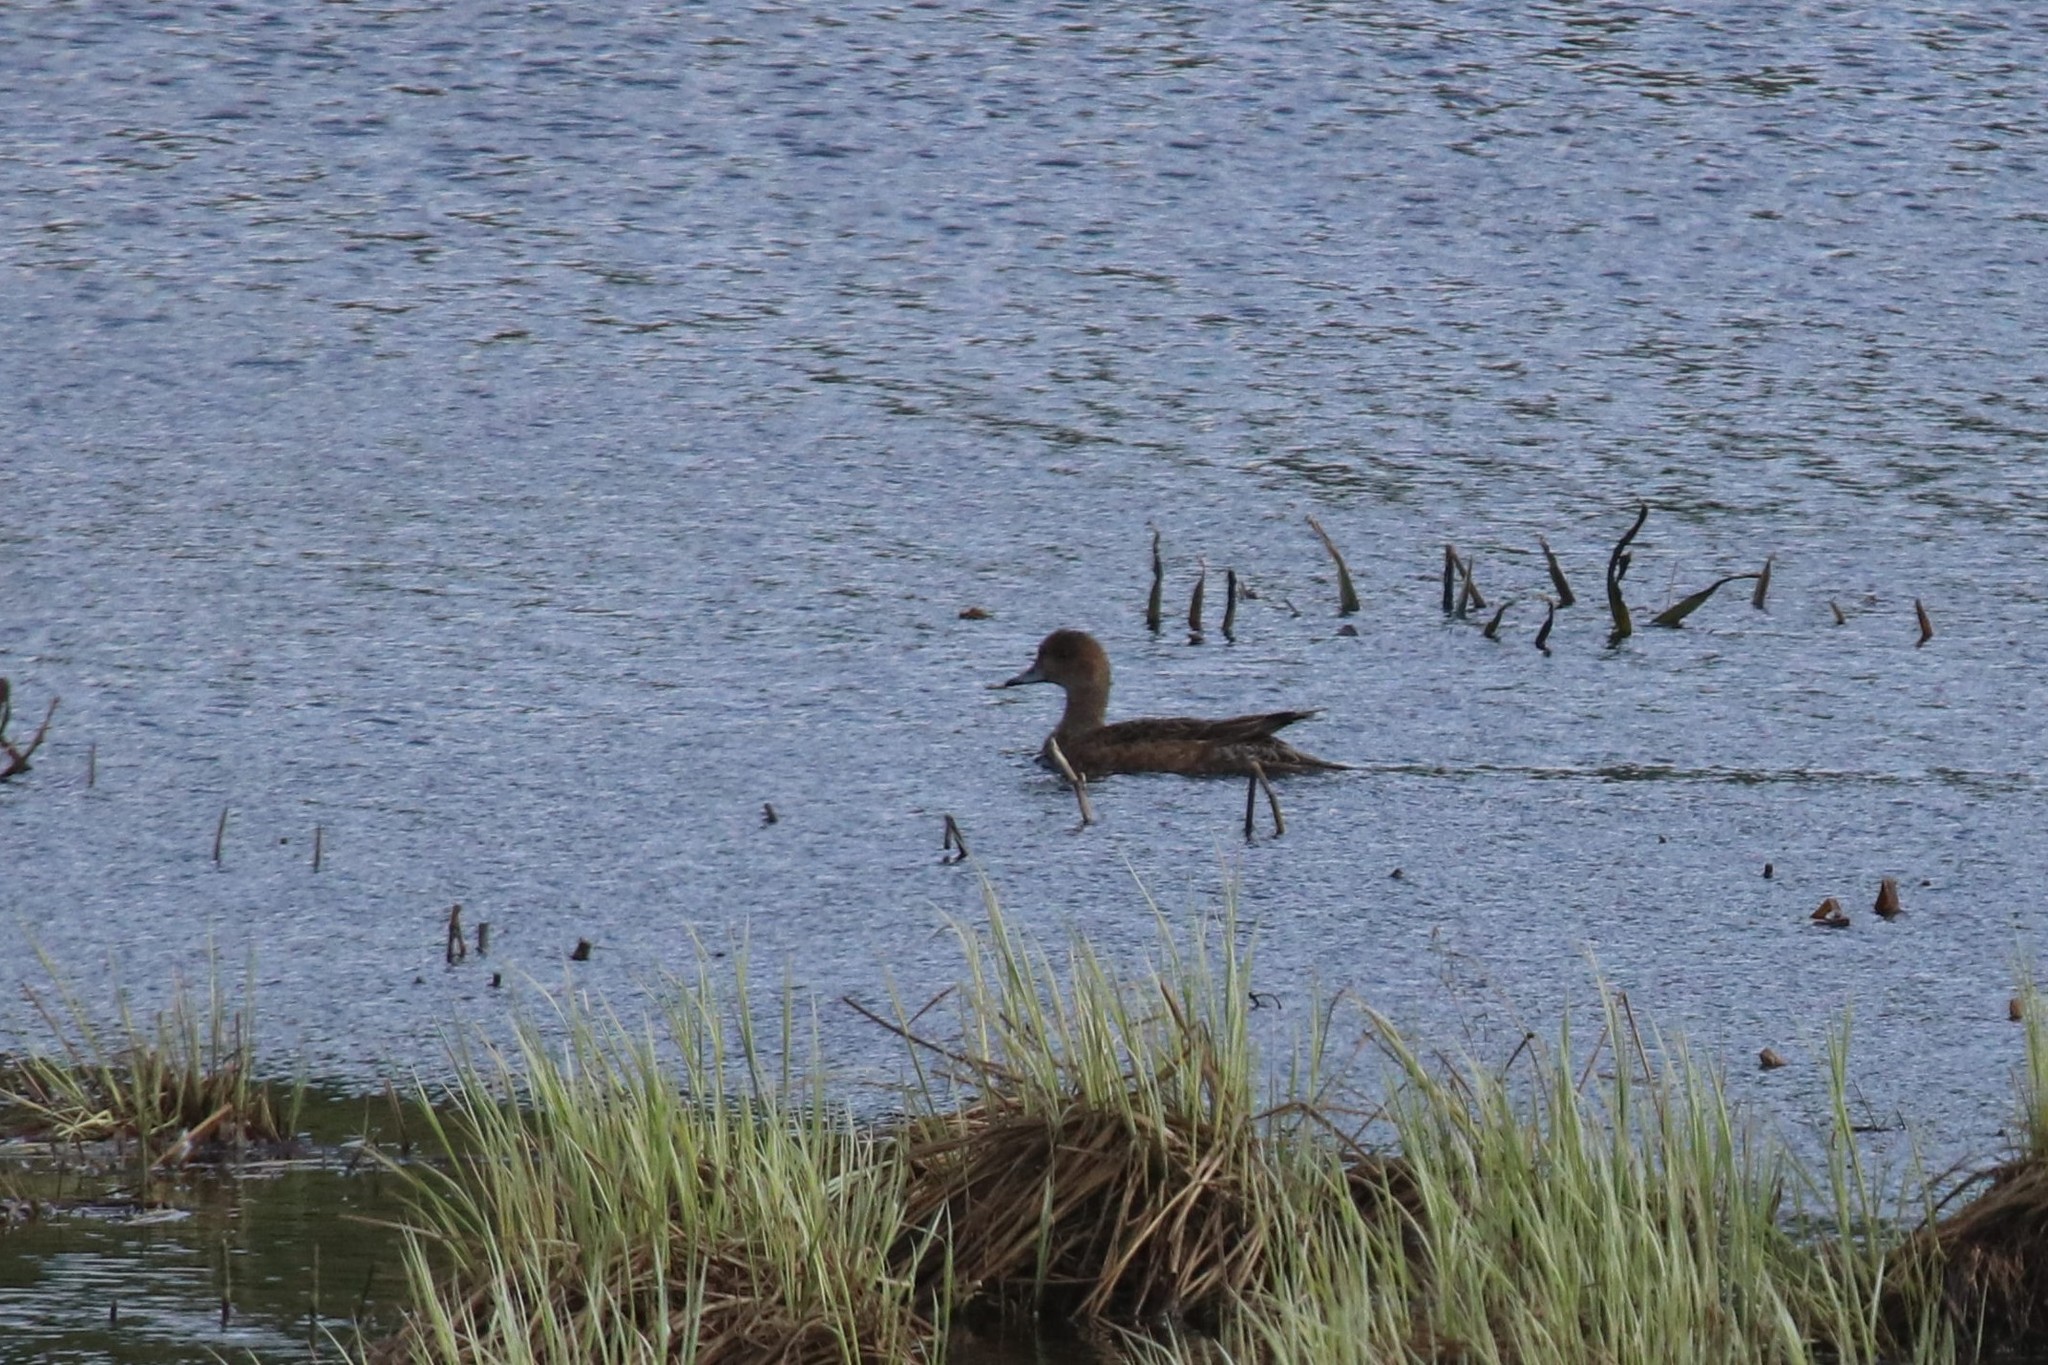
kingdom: Animalia
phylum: Chordata
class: Aves
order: Anseriformes
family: Anatidae
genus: Mareca
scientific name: Mareca penelope
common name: Eurasian wigeon
